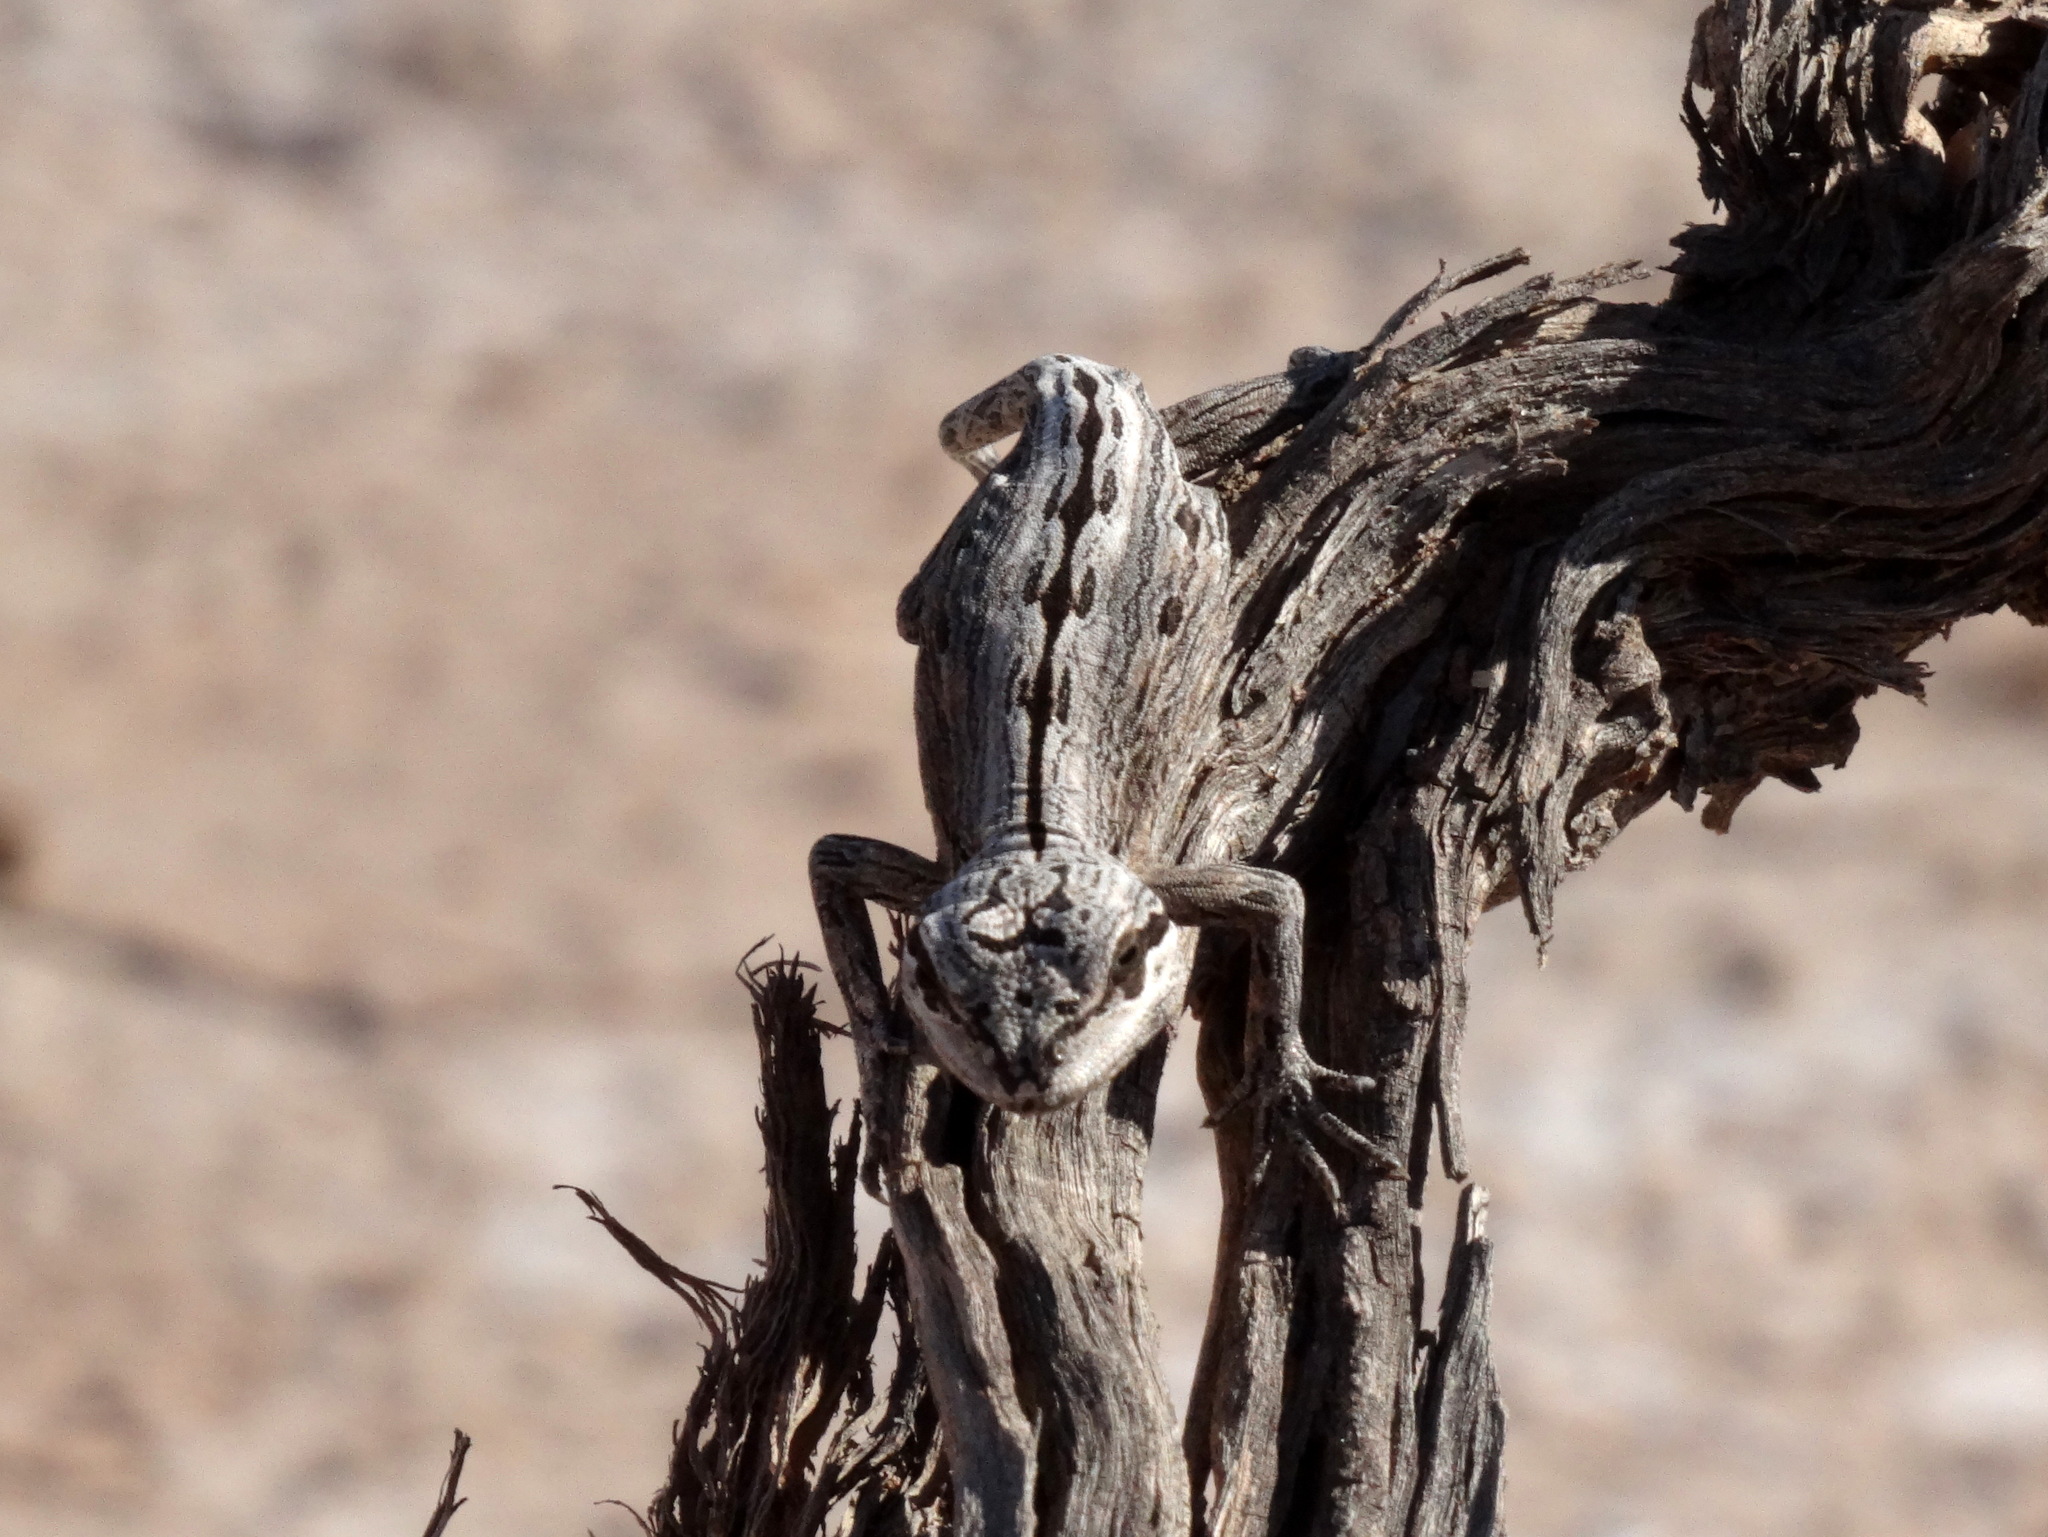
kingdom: Animalia
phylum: Chordata
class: Squamata
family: Leiosauridae
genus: Leiosaurus
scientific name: Leiosaurus paronae
